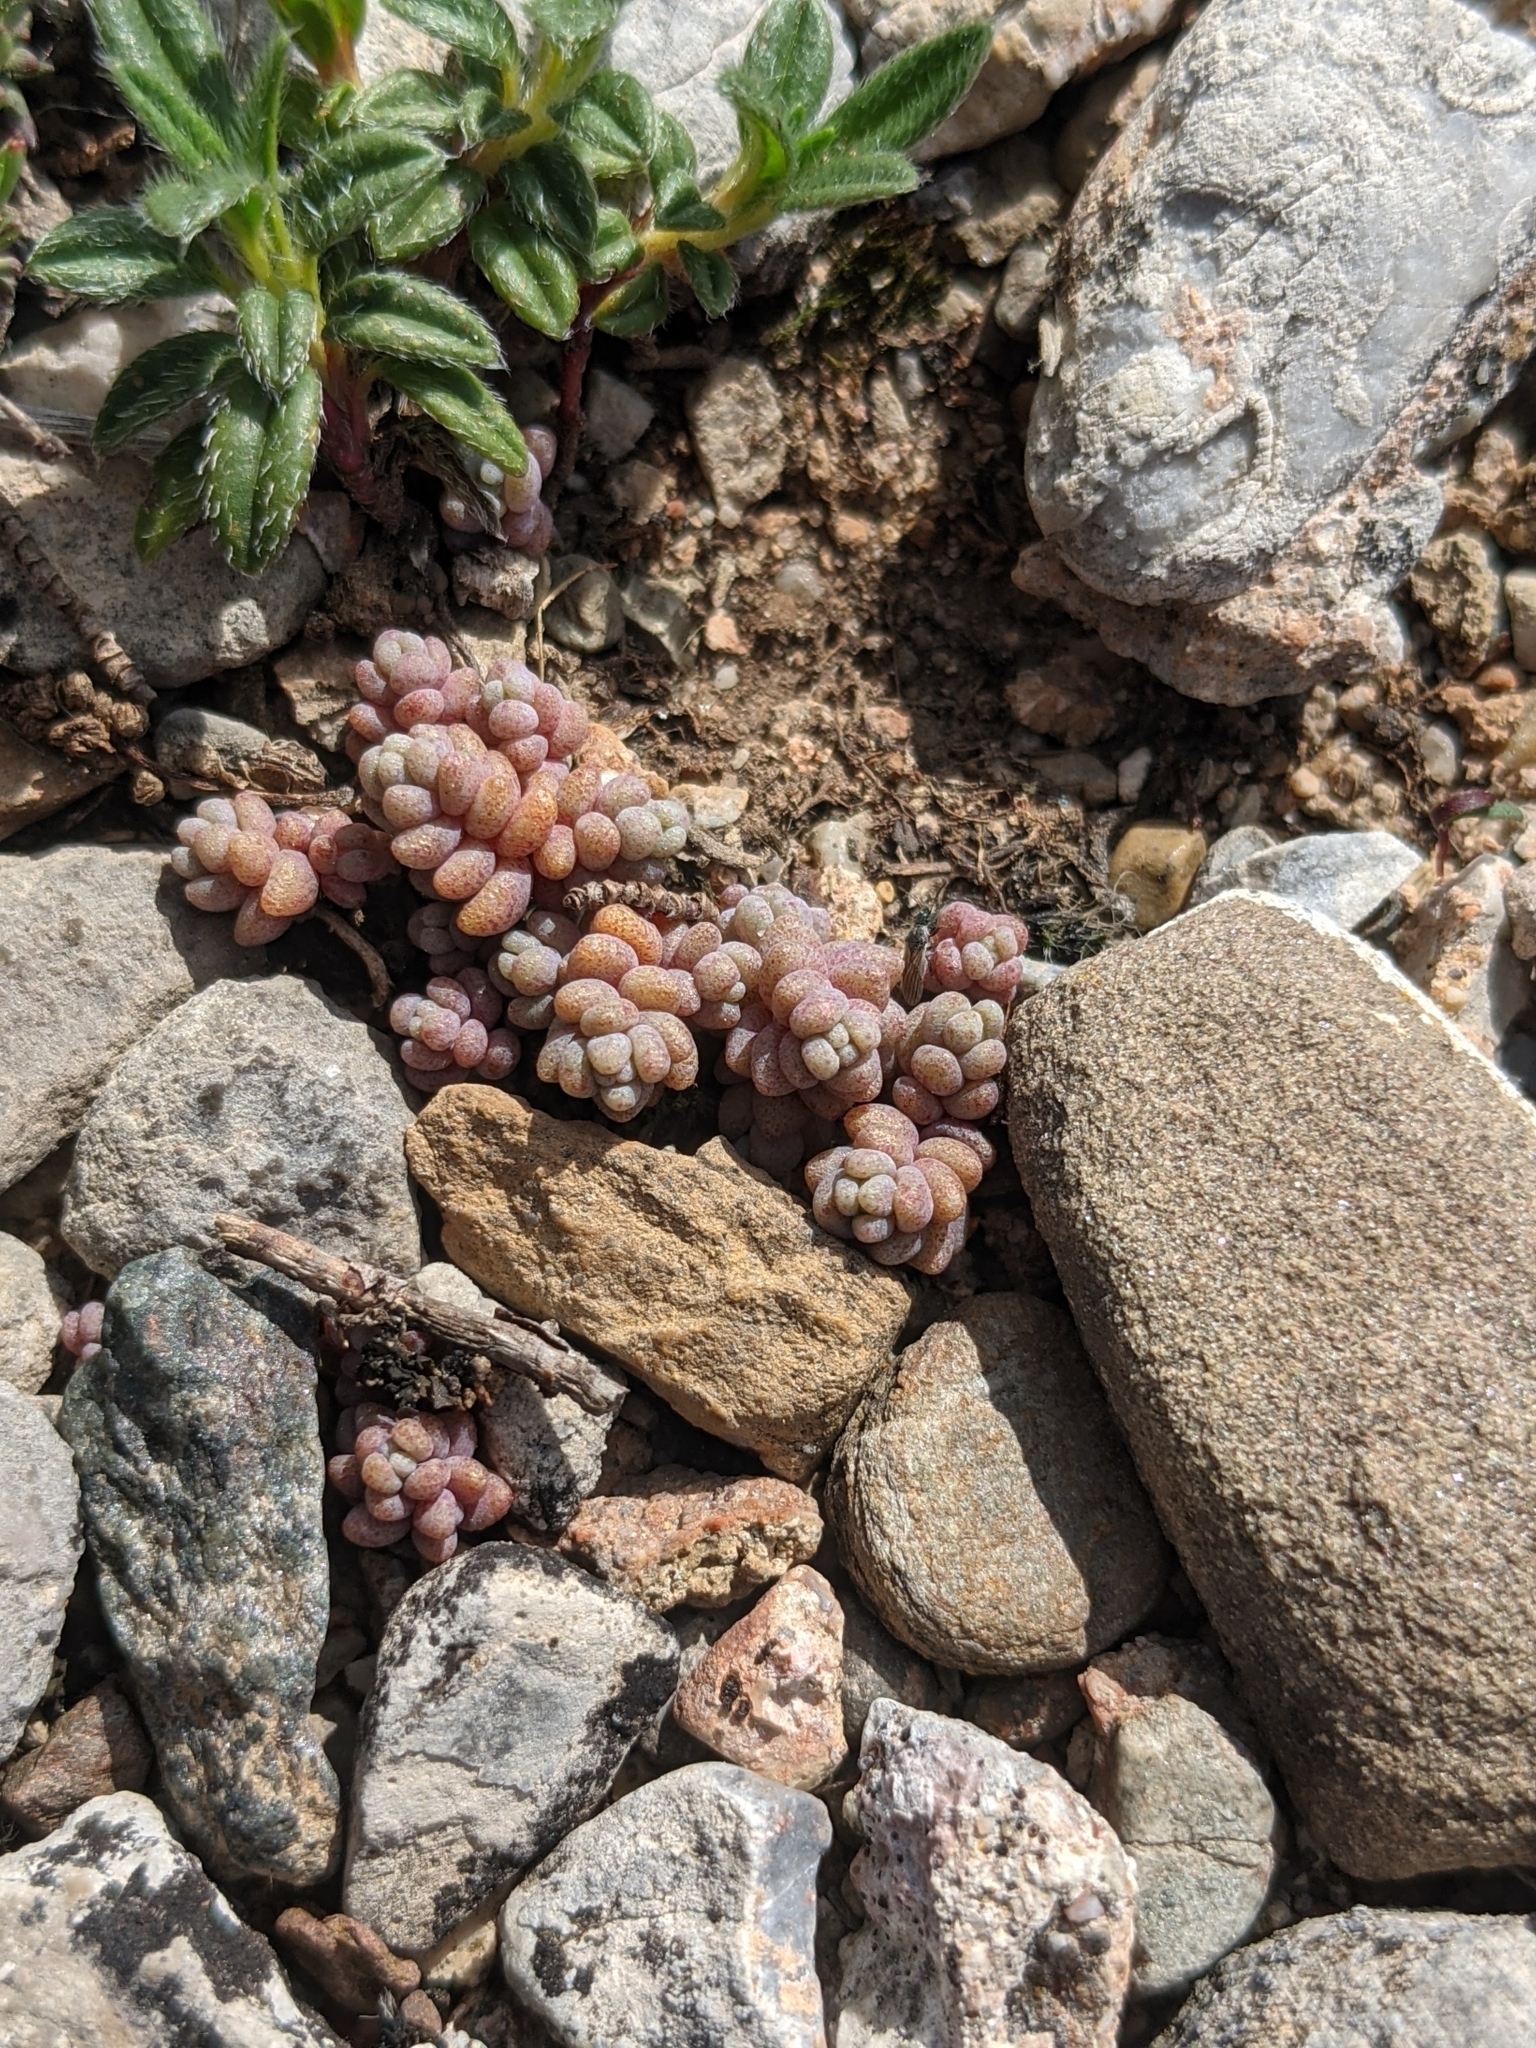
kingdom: Plantae
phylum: Tracheophyta
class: Magnoliopsida
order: Saxifragales
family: Crassulaceae
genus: Sedum
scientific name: Sedum dasyphyllum
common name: Thick-leaf stonecrop
